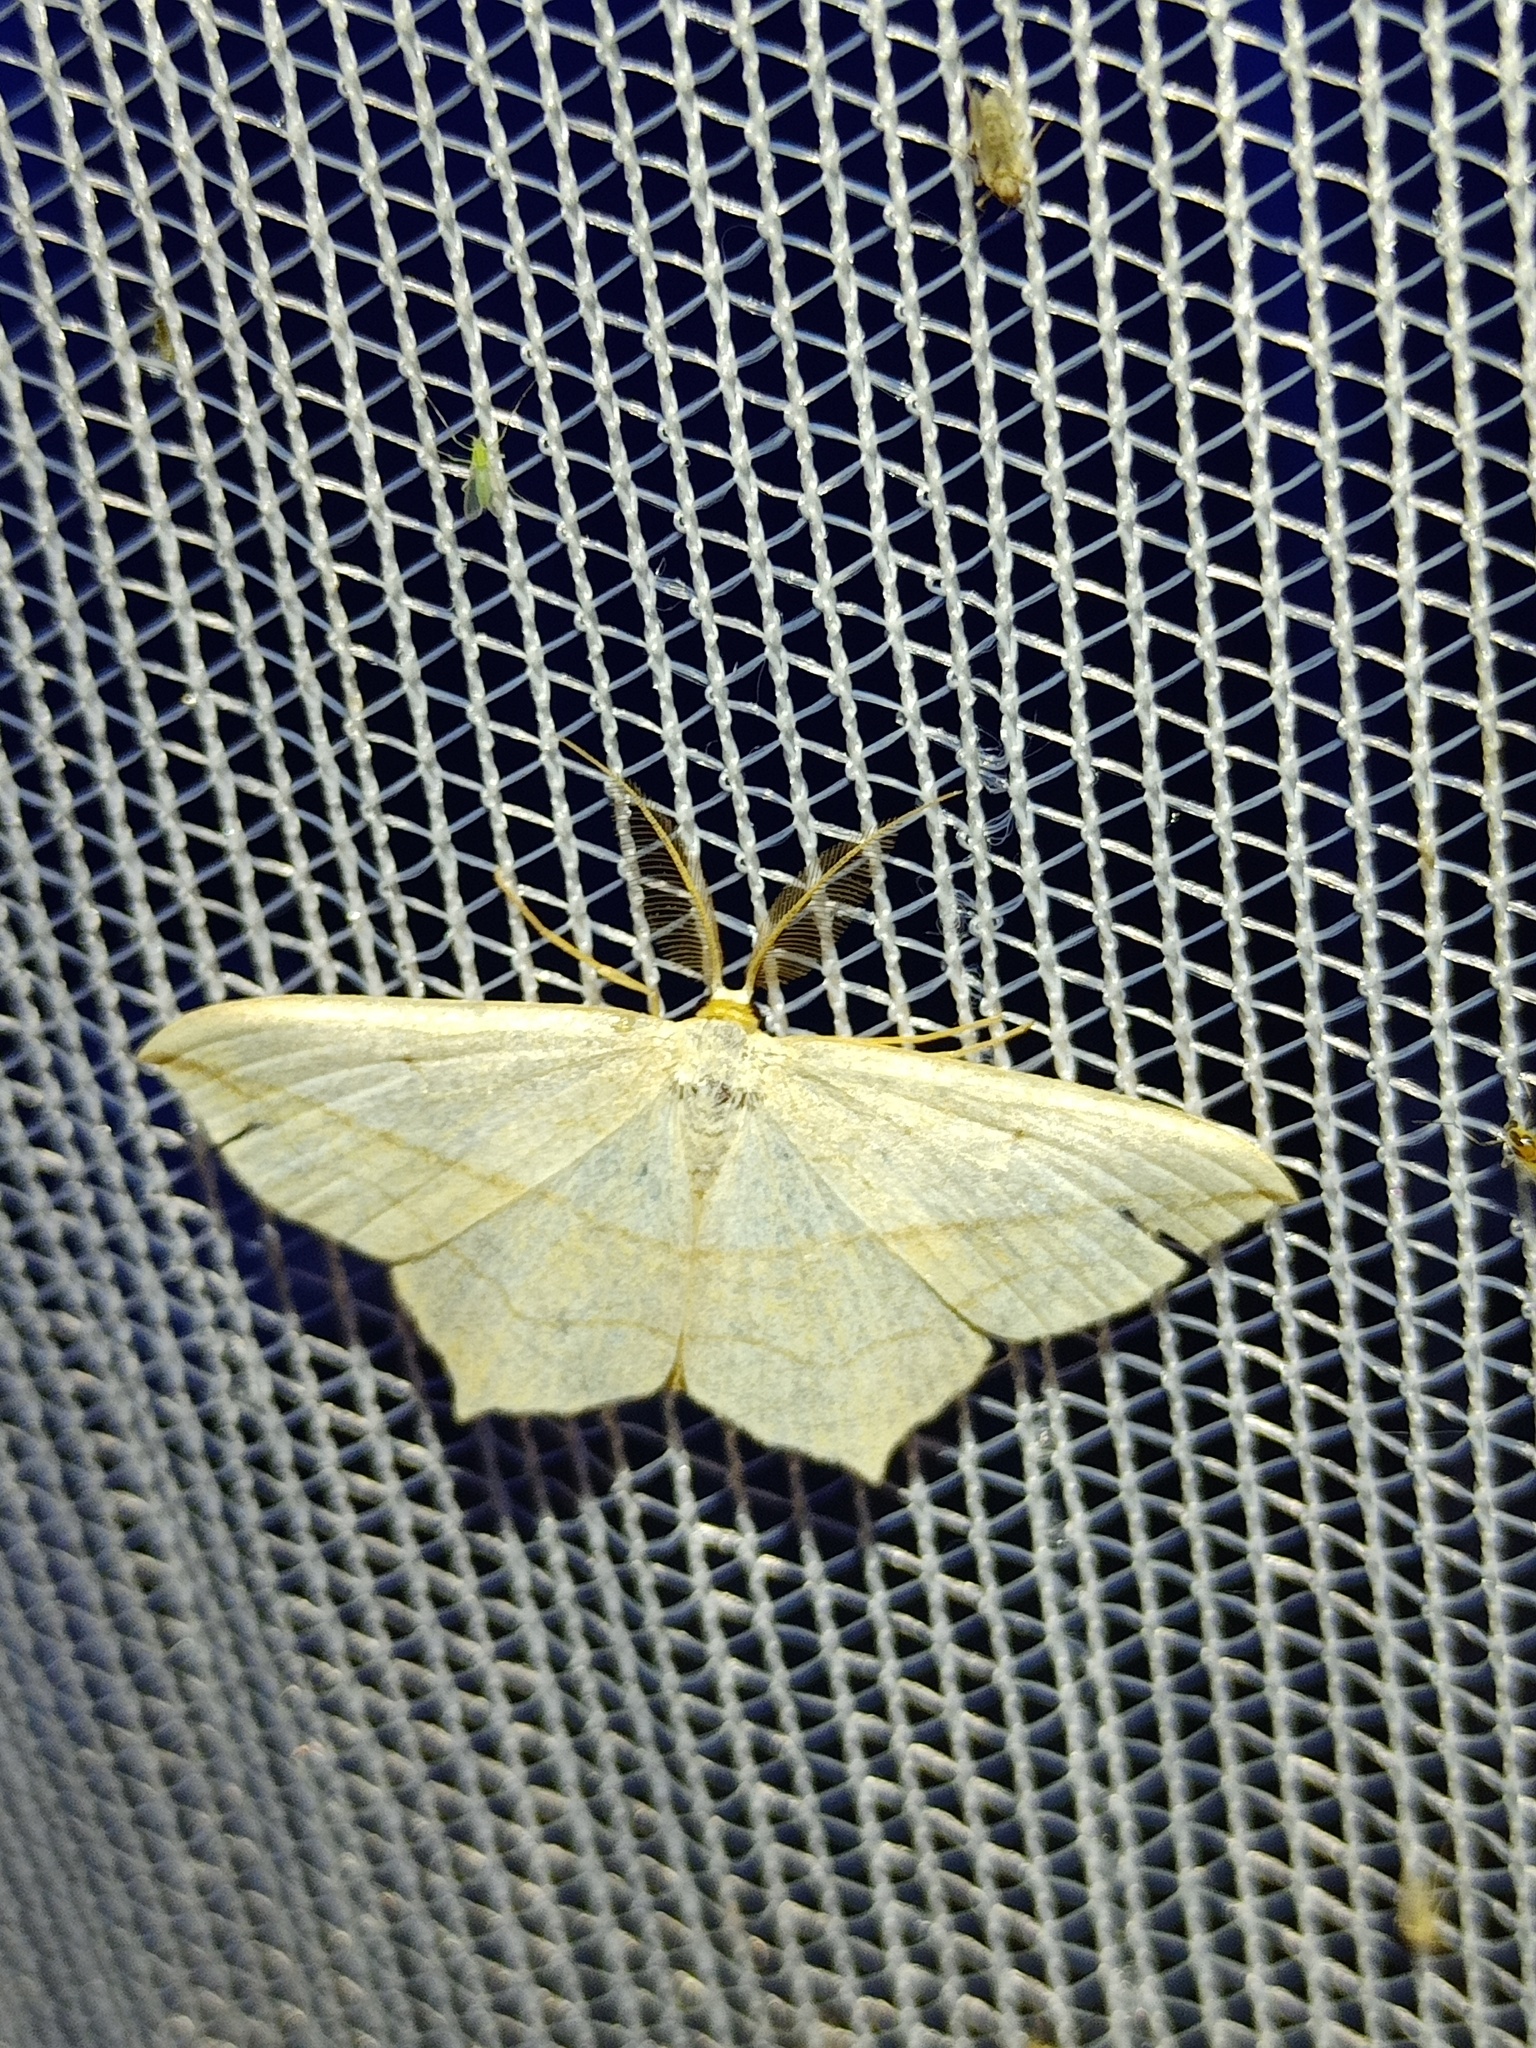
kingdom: Animalia
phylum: Arthropoda
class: Insecta
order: Lepidoptera
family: Geometridae
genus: Timandra
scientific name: Timandra comae
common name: Blood-vein
